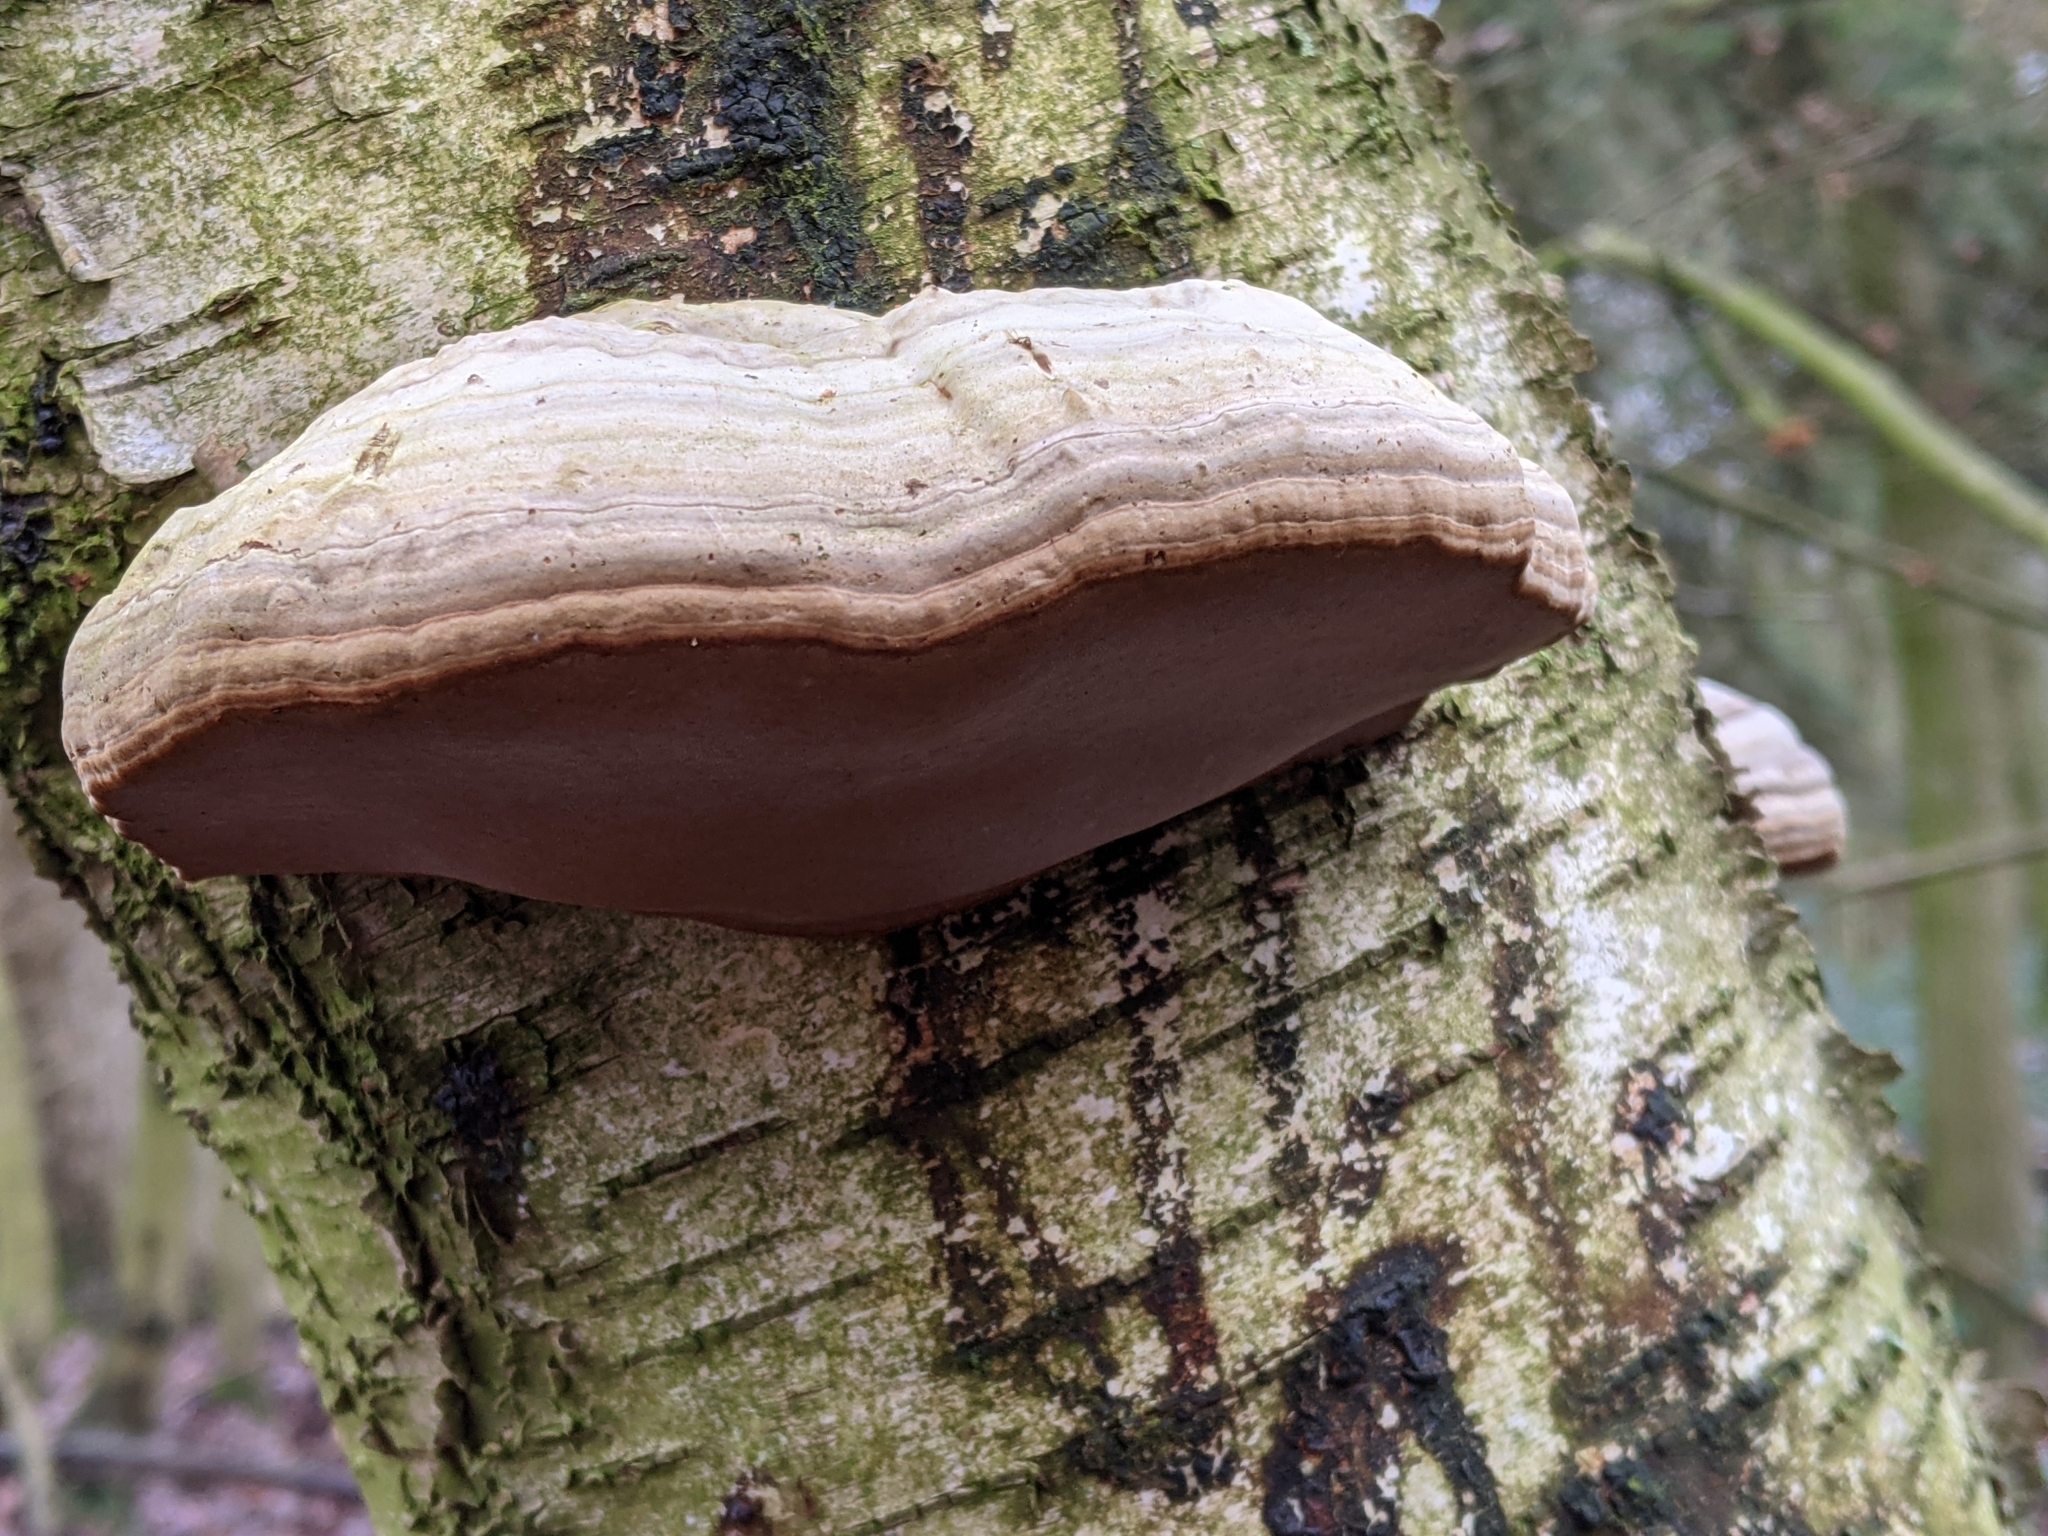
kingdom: Fungi
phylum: Basidiomycota
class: Agaricomycetes
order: Polyporales
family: Polyporaceae
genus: Fomes
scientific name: Fomes fomentarius
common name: Hoof fungus
